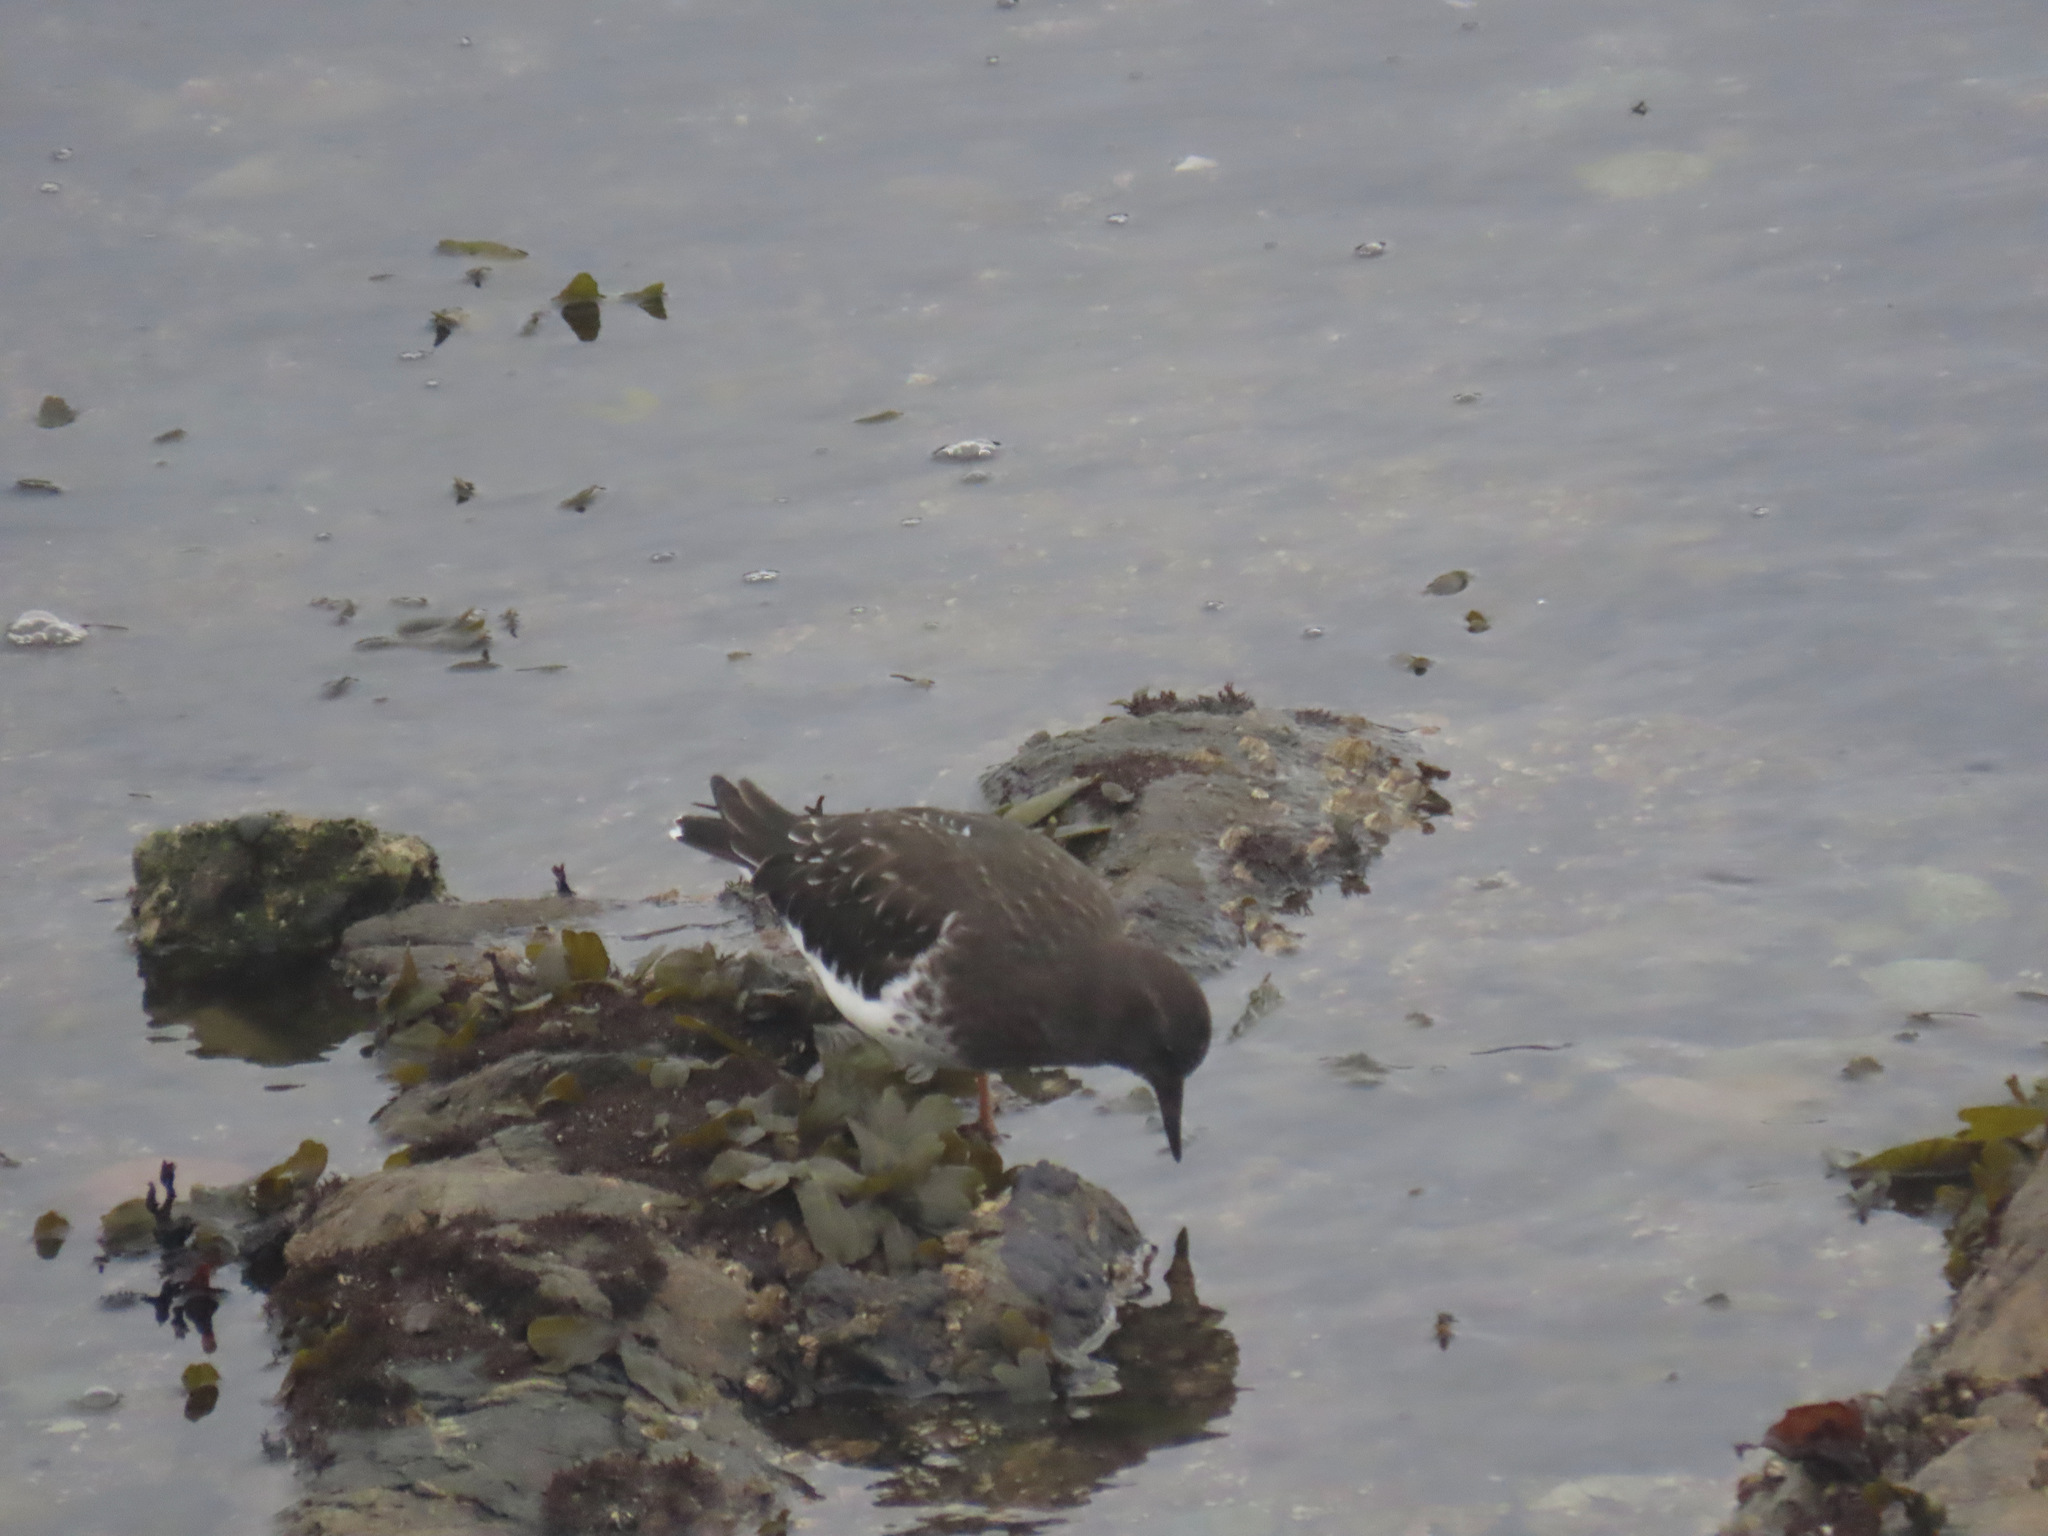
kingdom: Animalia
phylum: Chordata
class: Aves
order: Charadriiformes
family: Scolopacidae
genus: Arenaria
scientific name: Arenaria melanocephala
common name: Black turnstone
